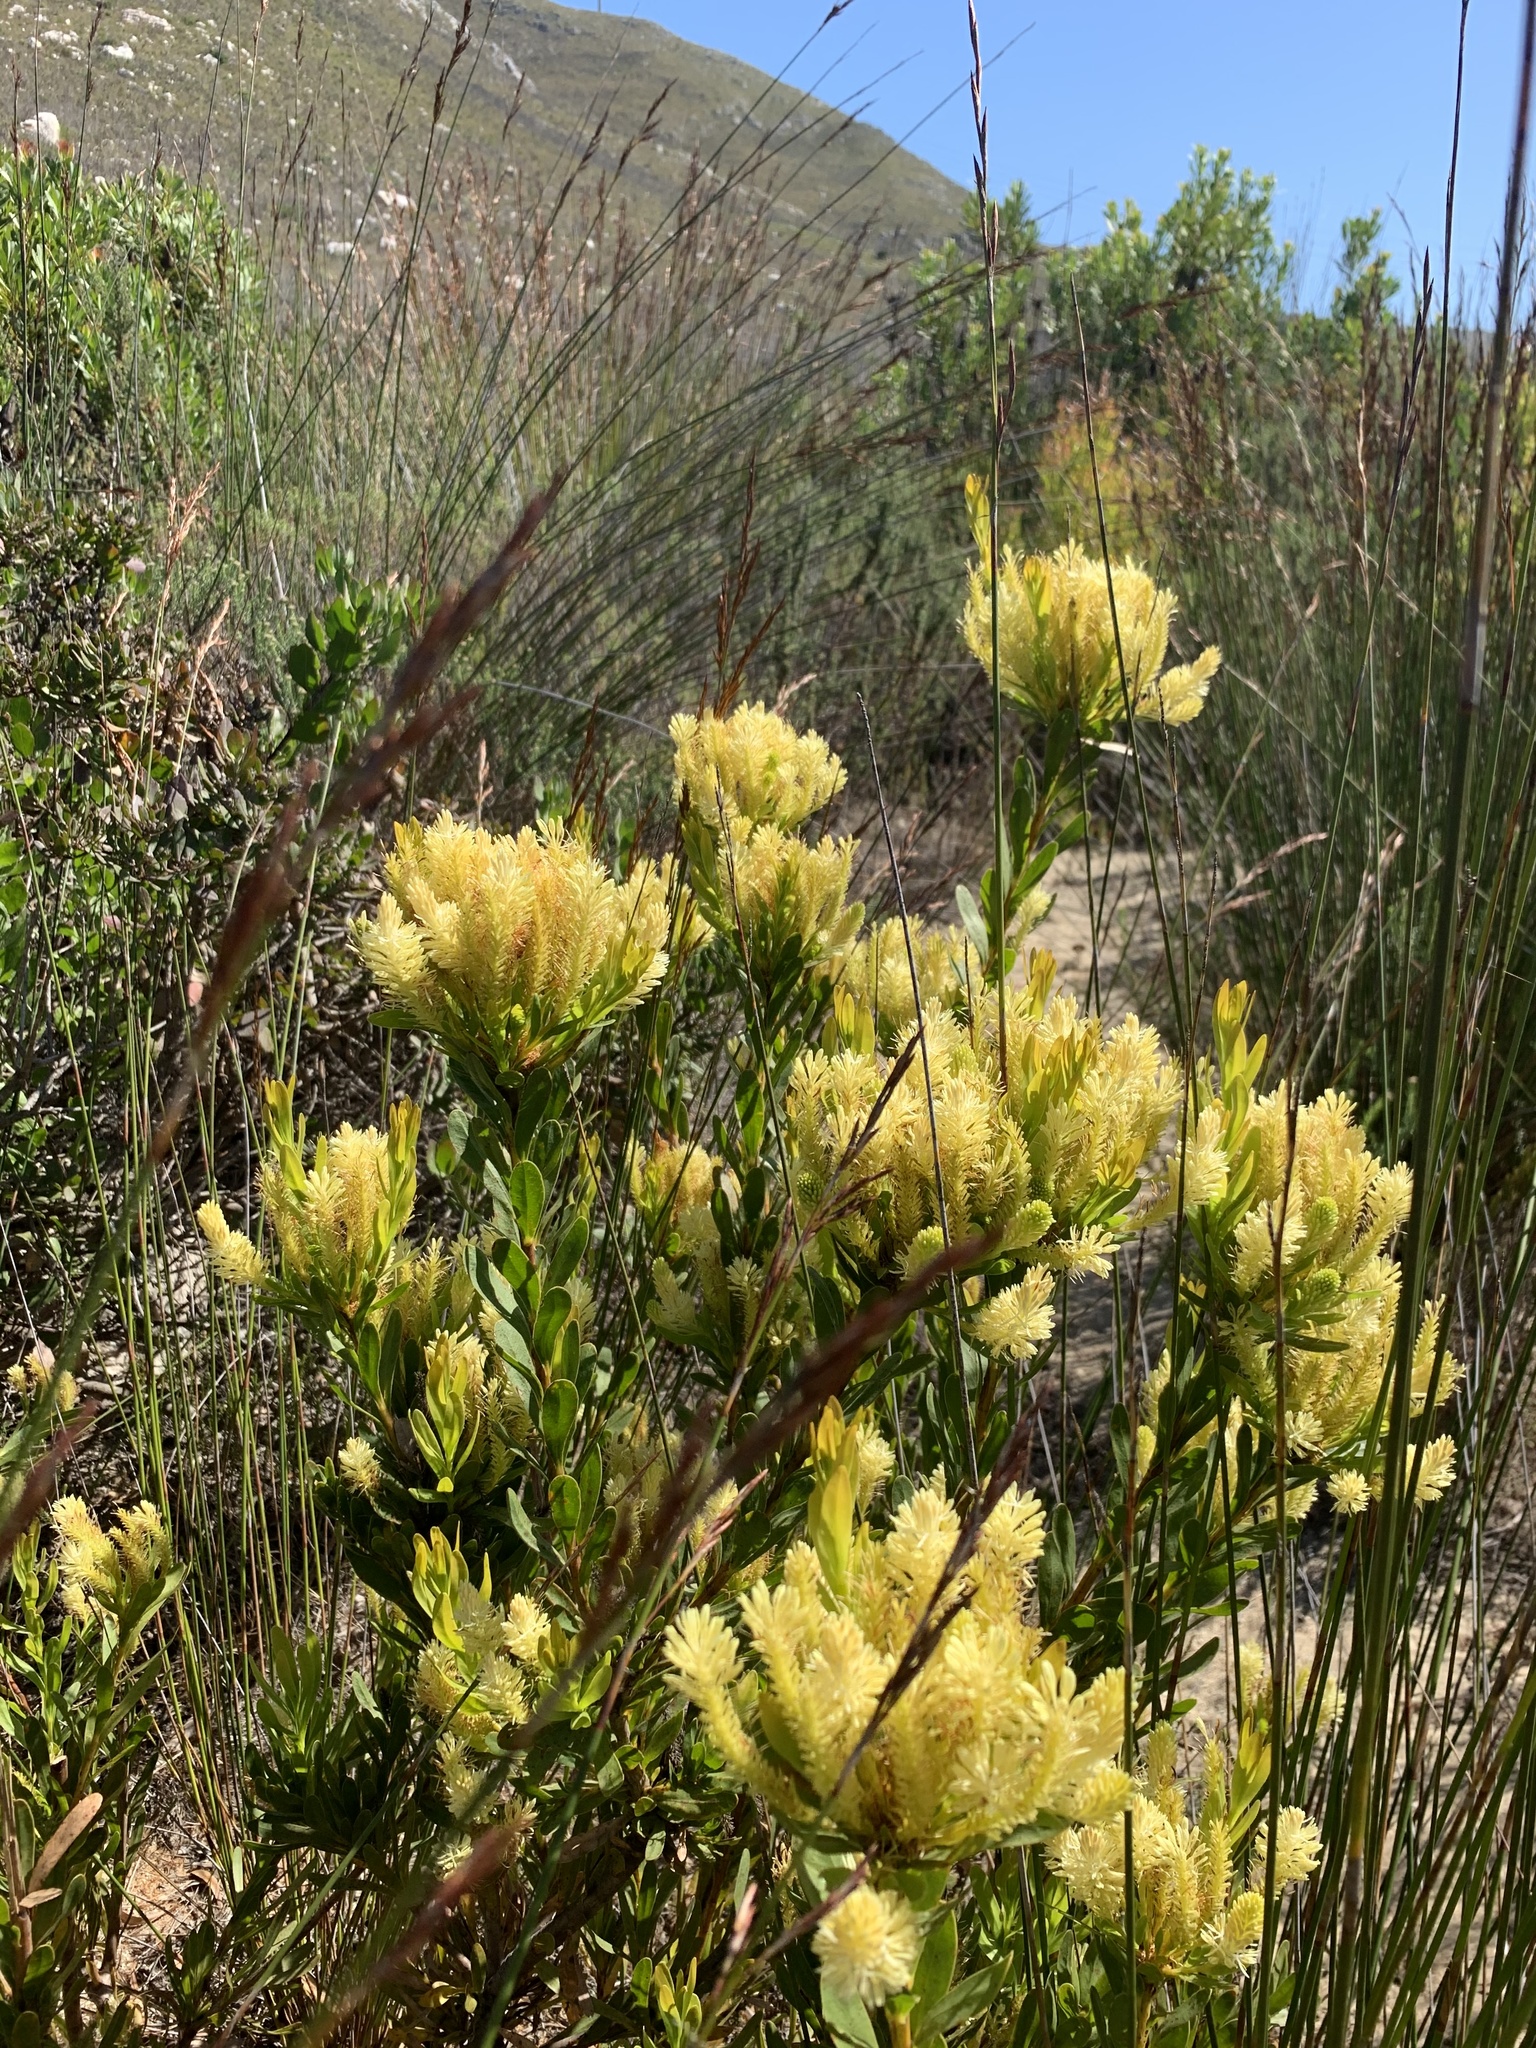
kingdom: Plantae
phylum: Tracheophyta
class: Magnoliopsida
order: Proteales
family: Proteaceae
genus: Aulax
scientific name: Aulax umbellata
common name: Broad-leaf featherbush
